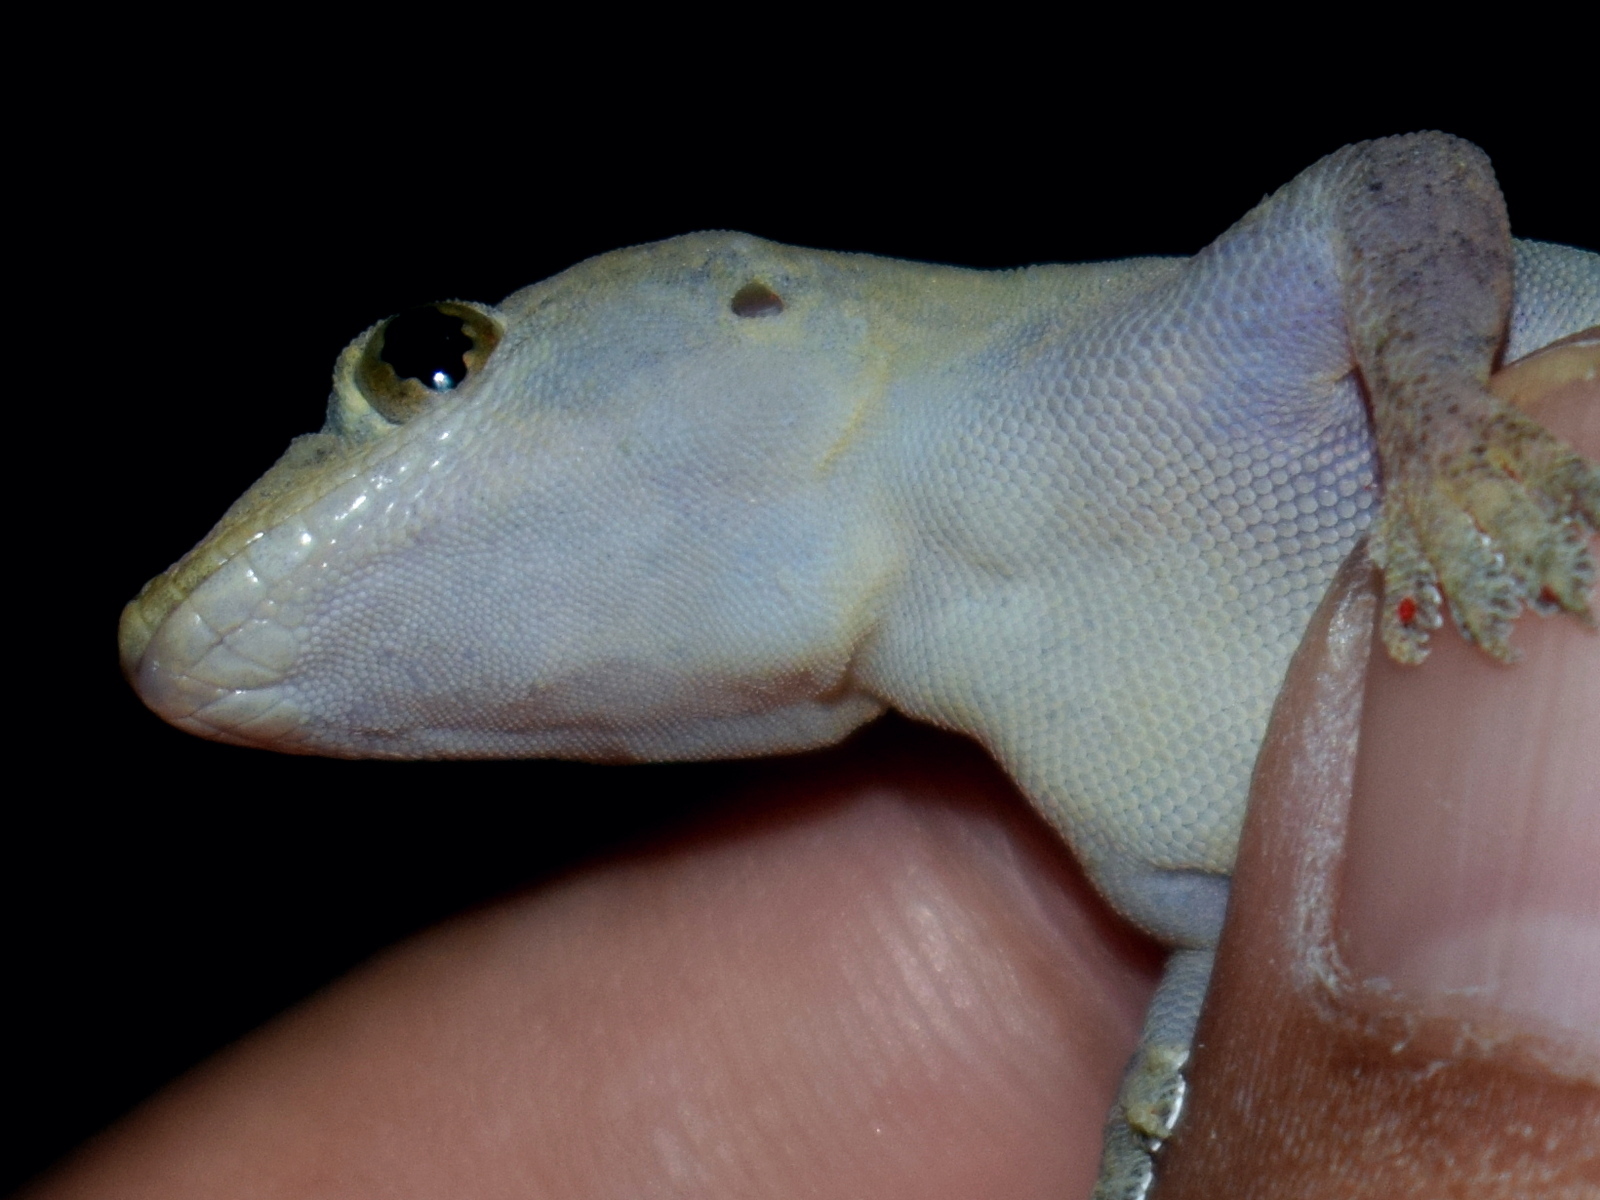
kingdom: Animalia
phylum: Chordata
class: Squamata
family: Gekkonidae
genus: Hemidactylus
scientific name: Hemidactylus frenatus
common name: Common house gecko
